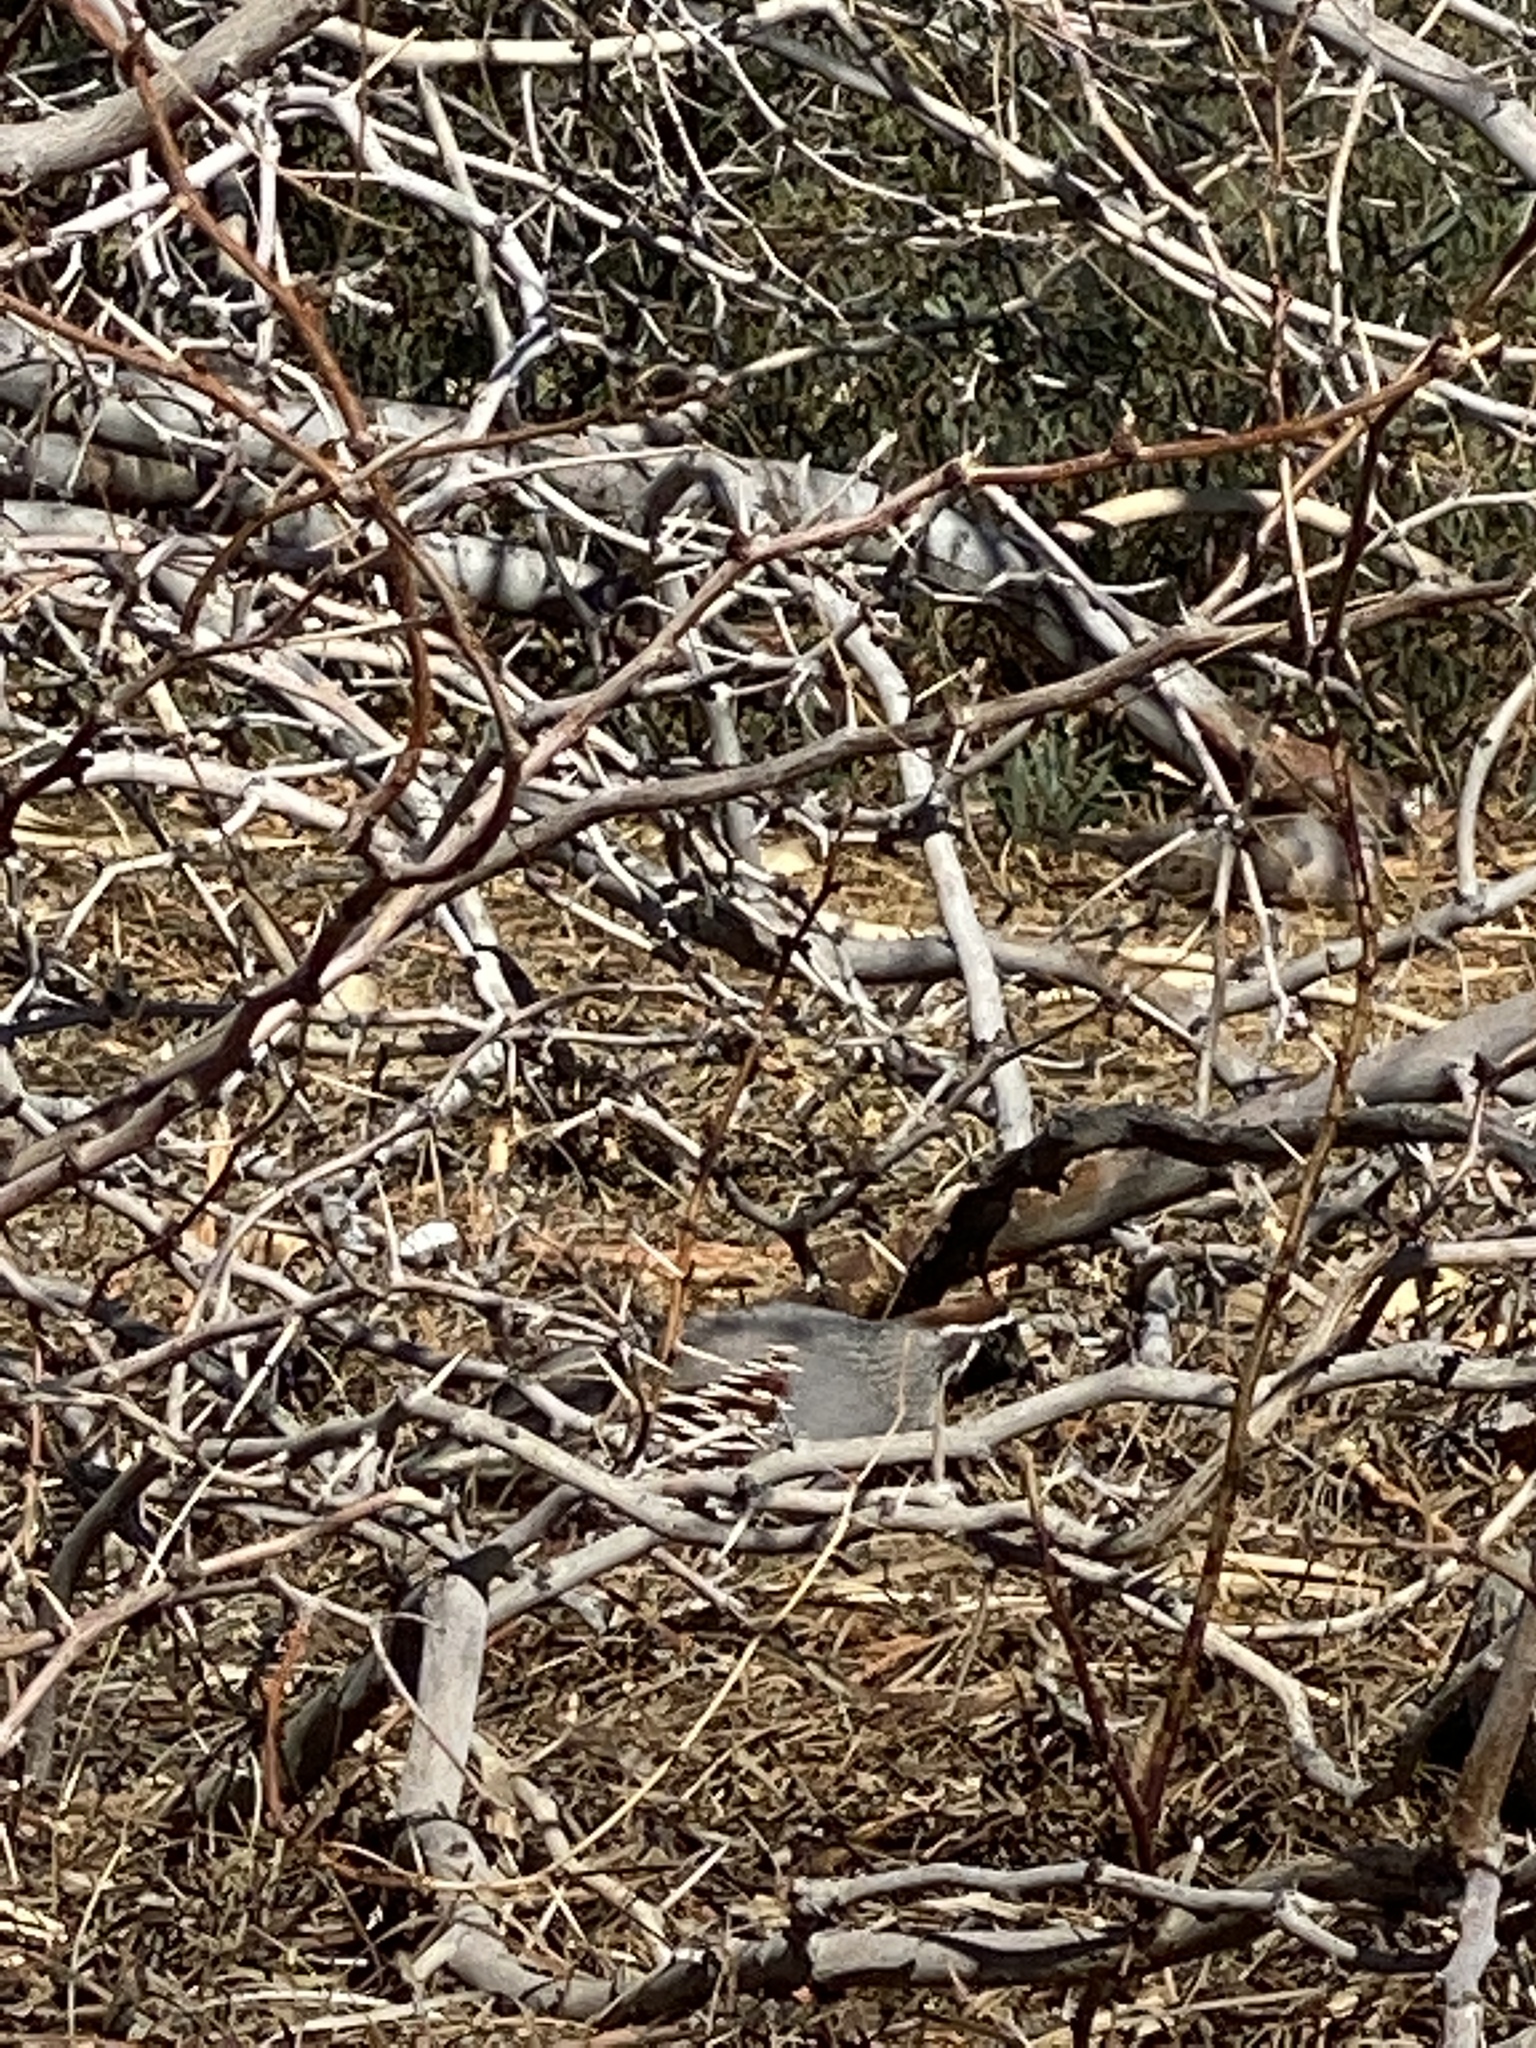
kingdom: Animalia
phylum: Chordata
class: Aves
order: Galliformes
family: Odontophoridae
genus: Callipepla
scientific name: Callipepla gambelii
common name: Gambel's quail
